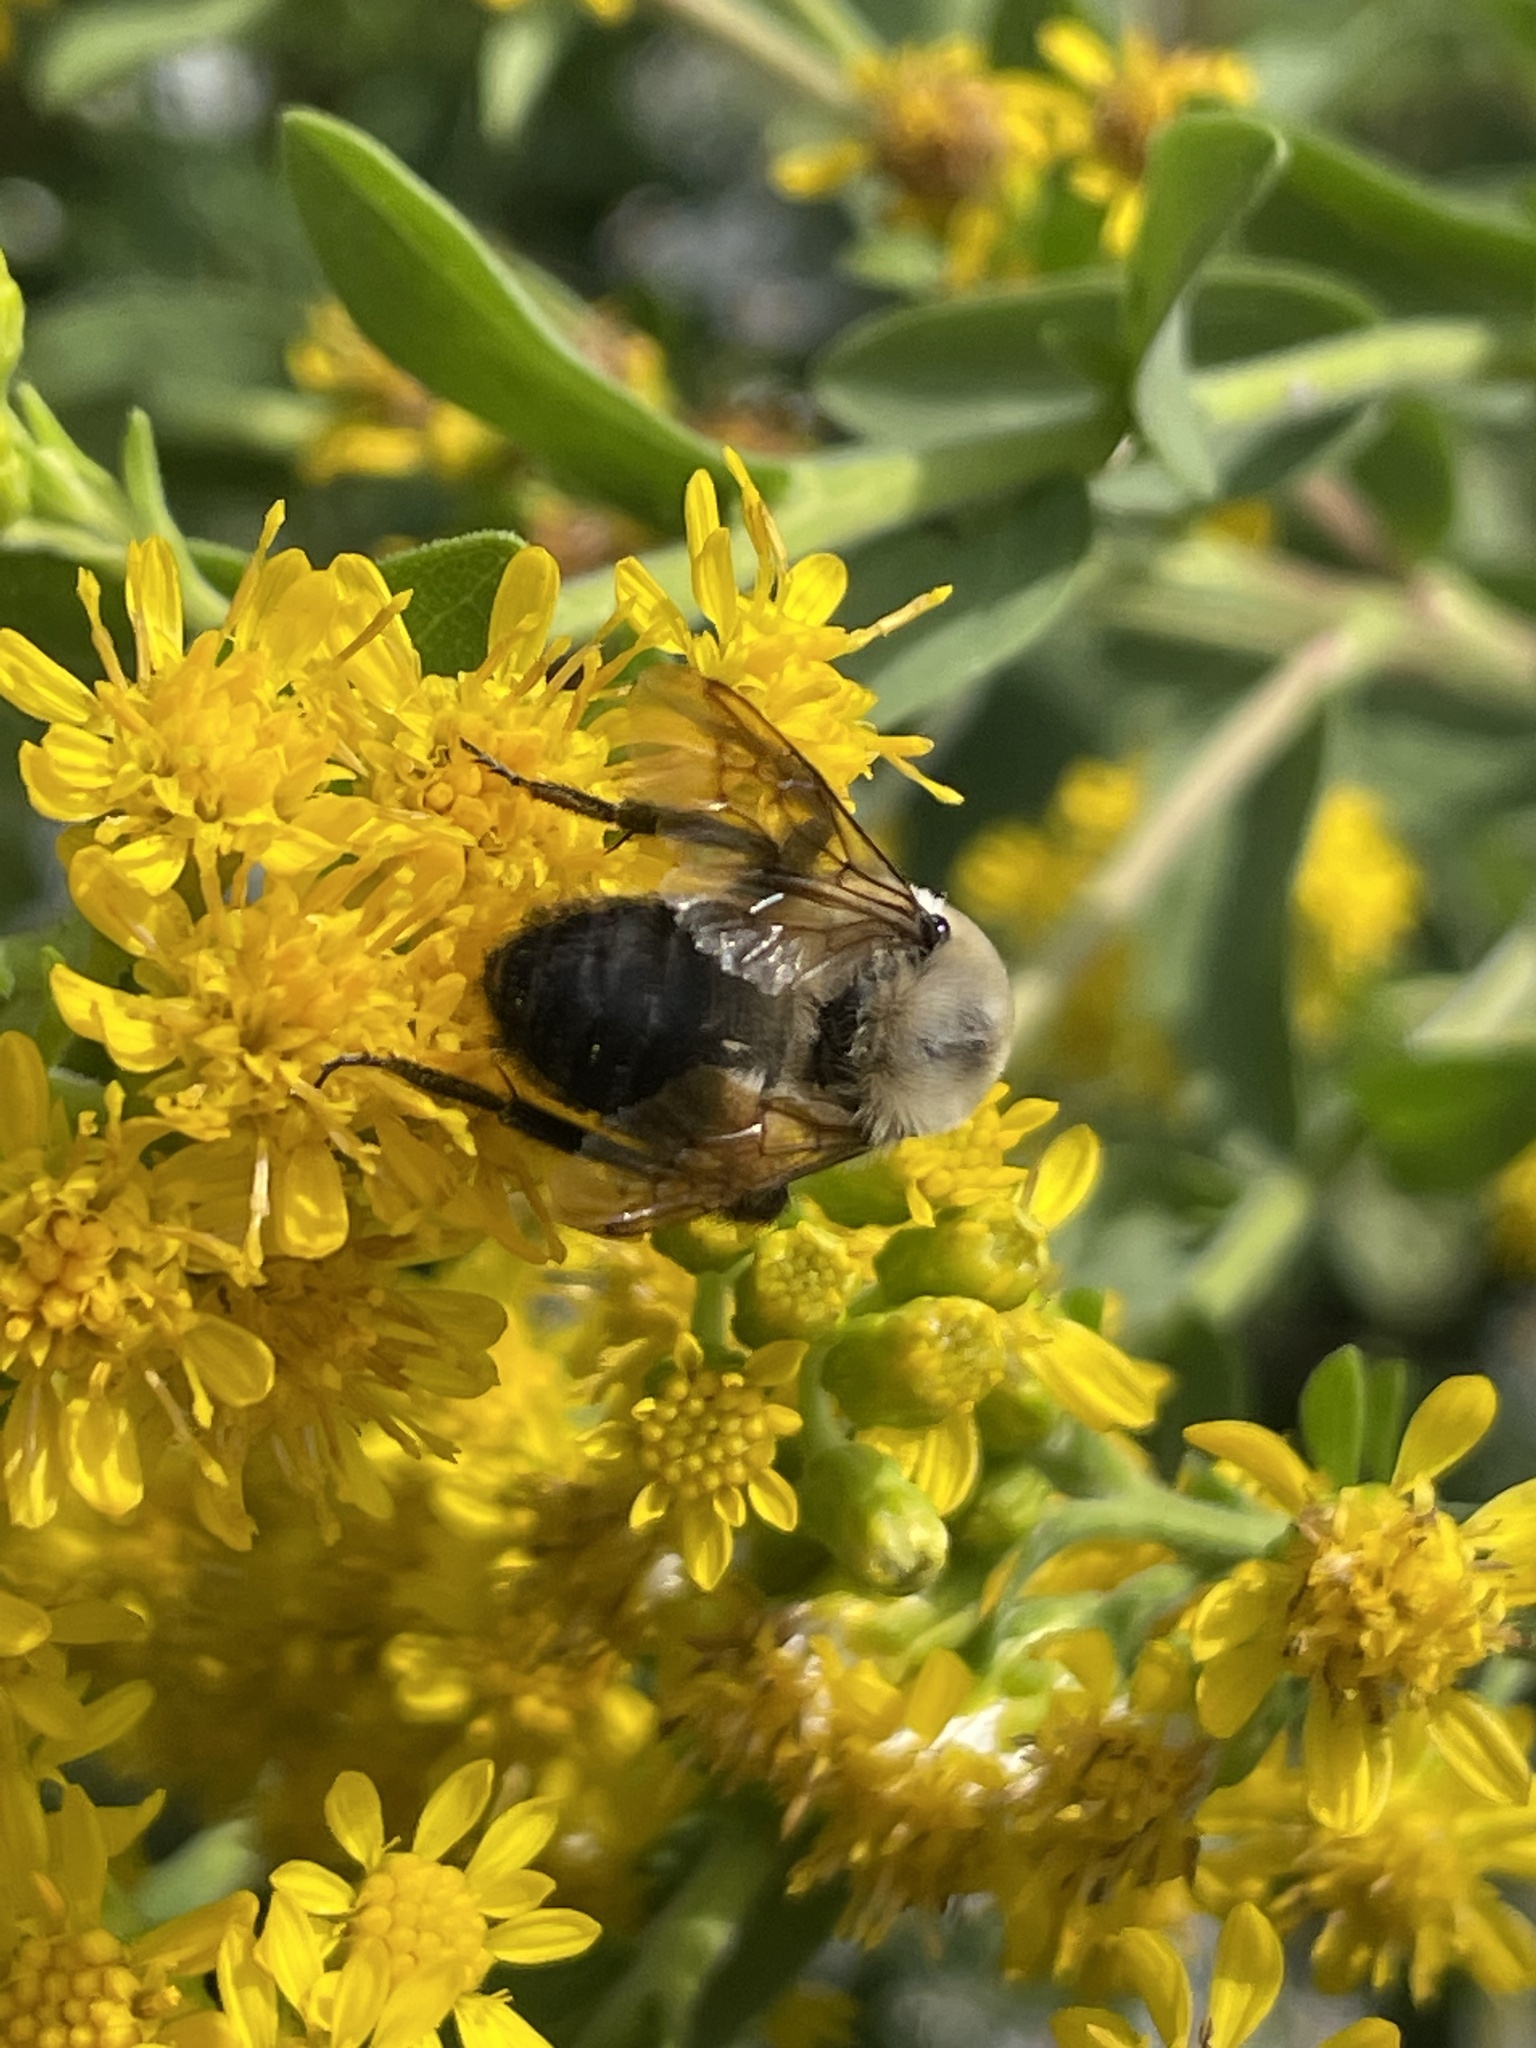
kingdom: Animalia
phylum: Arthropoda
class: Insecta
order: Hymenoptera
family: Apidae
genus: Bombus
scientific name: Bombus griseocollis
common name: Brown-belted bumble bee
